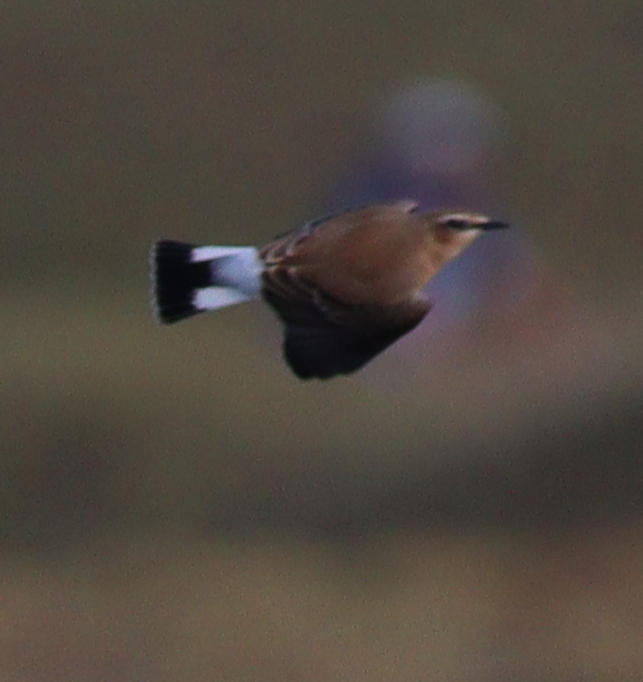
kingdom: Animalia
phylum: Chordata
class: Aves
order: Passeriformes
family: Muscicapidae
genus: Oenanthe
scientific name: Oenanthe oenanthe
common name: Northern wheatear
